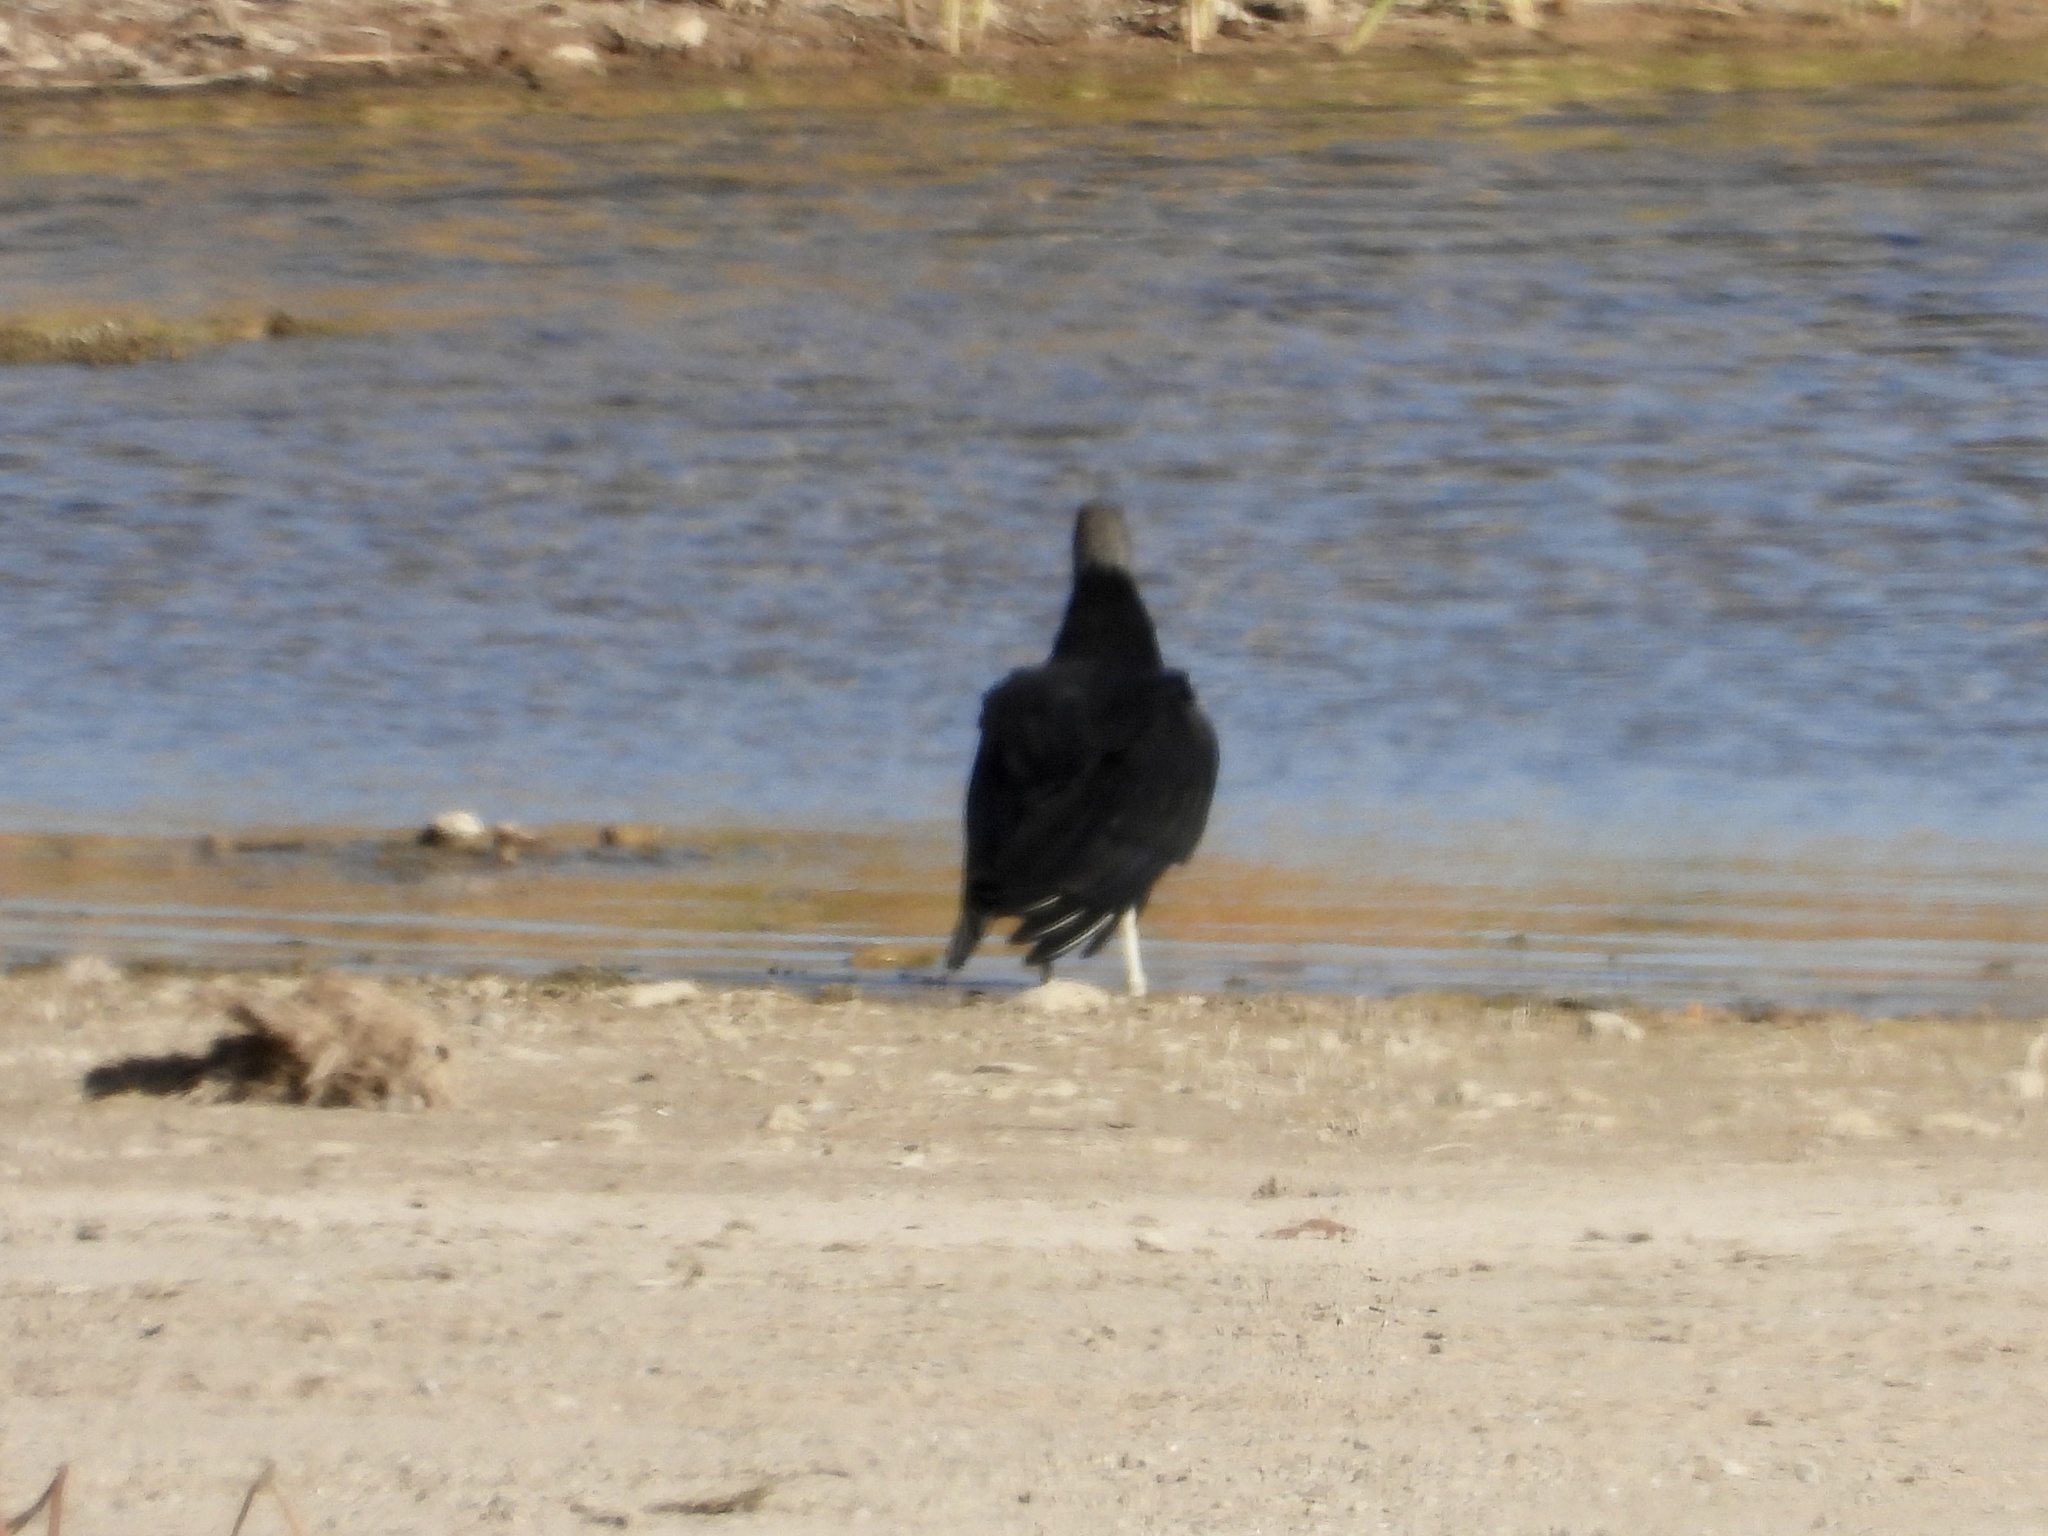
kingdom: Animalia
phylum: Chordata
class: Aves
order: Accipitriformes
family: Cathartidae
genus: Coragyps
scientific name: Coragyps atratus
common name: Black vulture
